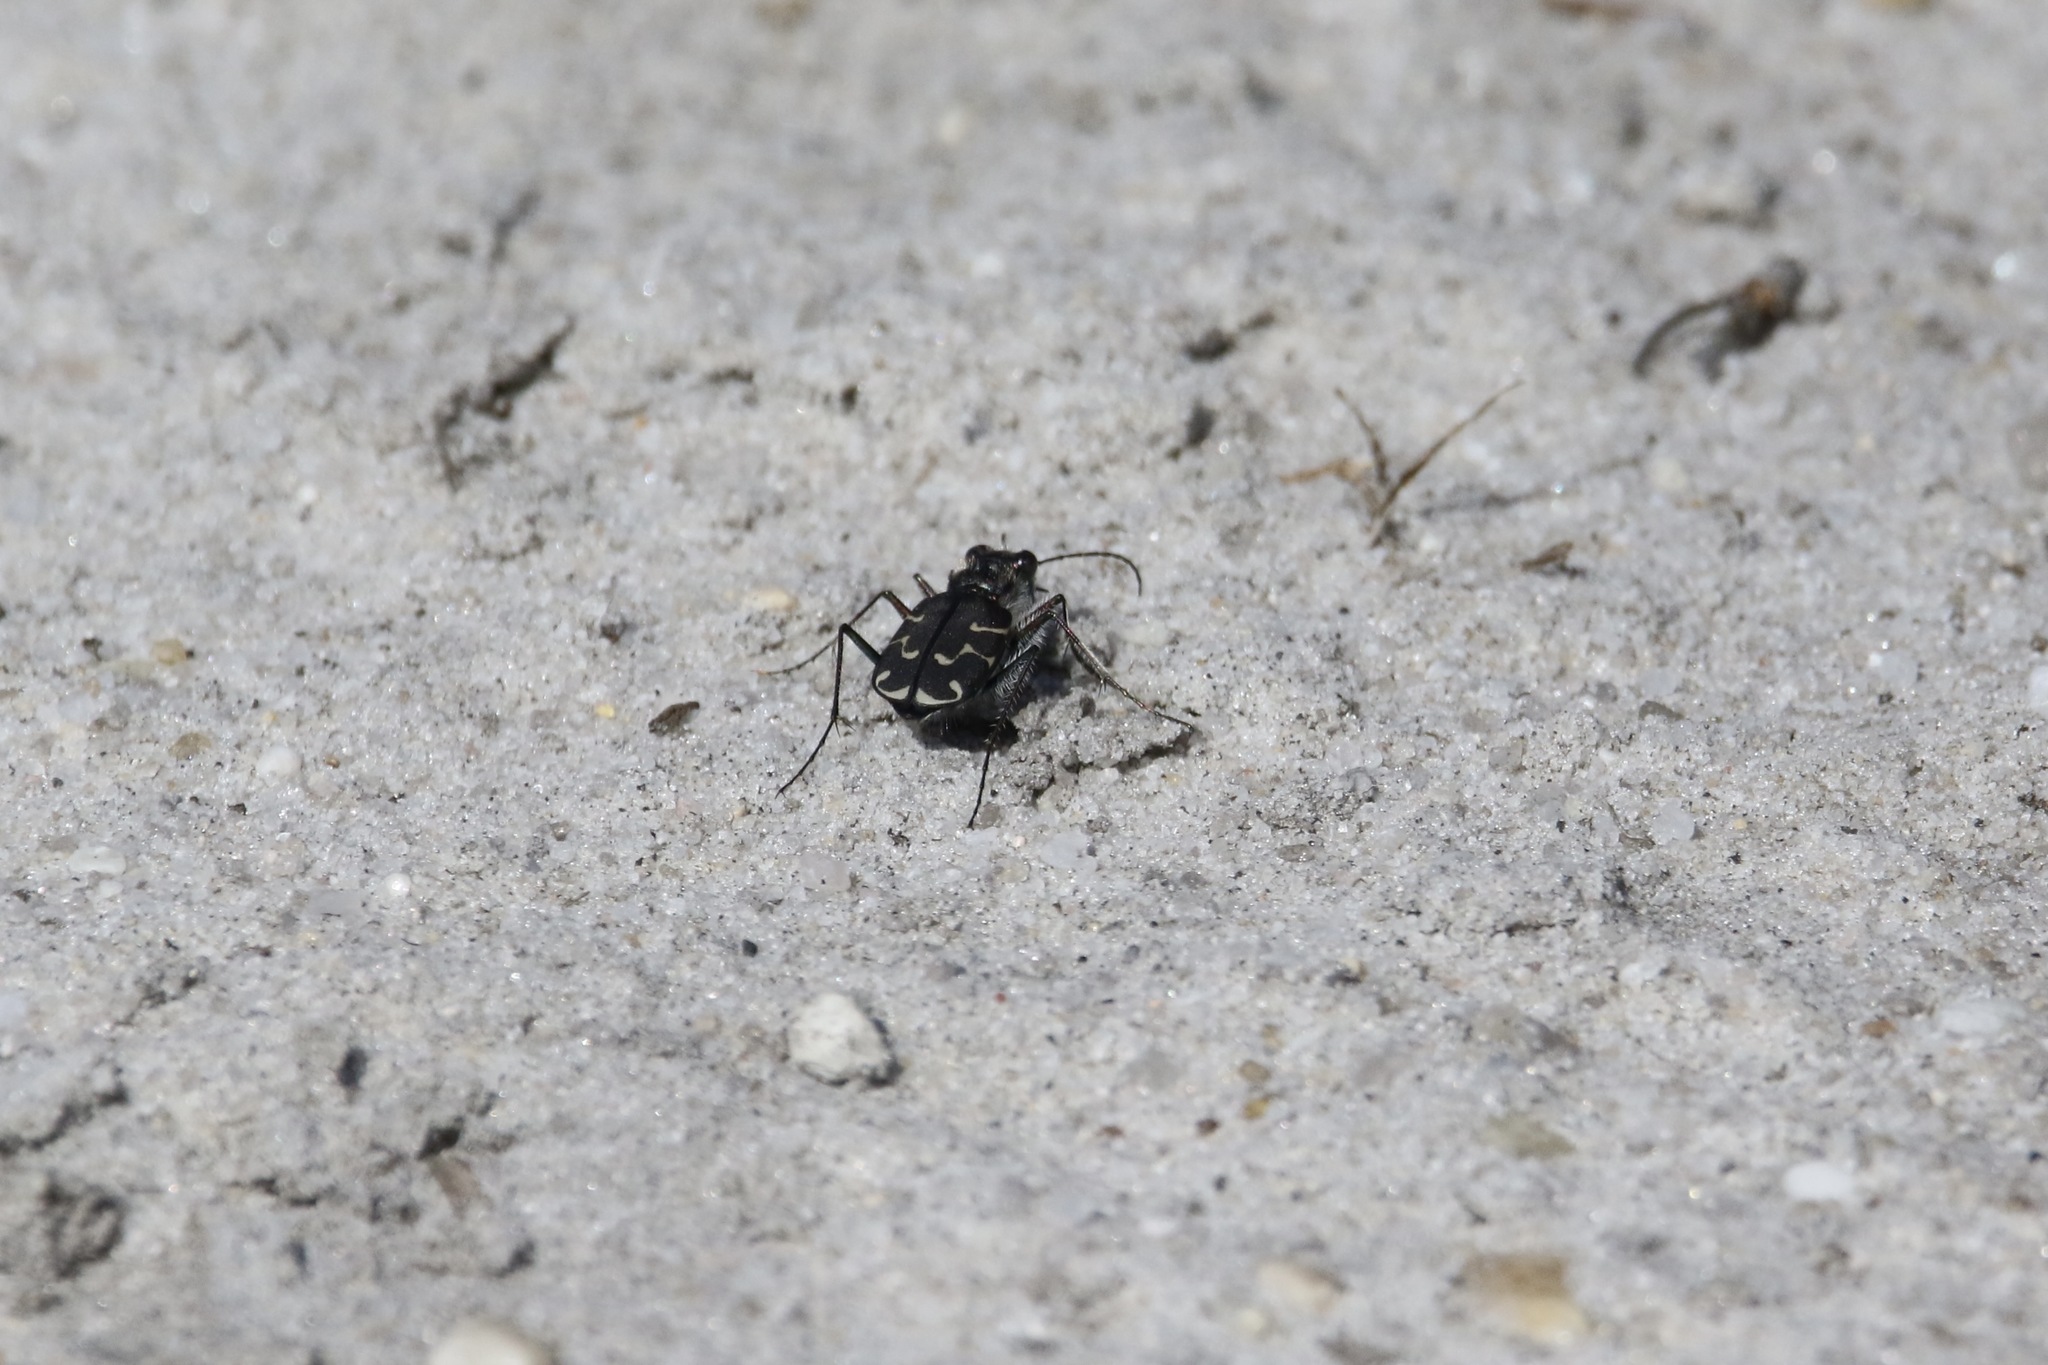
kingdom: Animalia
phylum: Arthropoda
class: Insecta
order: Coleoptera
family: Carabidae
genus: Cicindela
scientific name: Cicindela tranquebarica
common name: Oblique-lined tiger beetle
